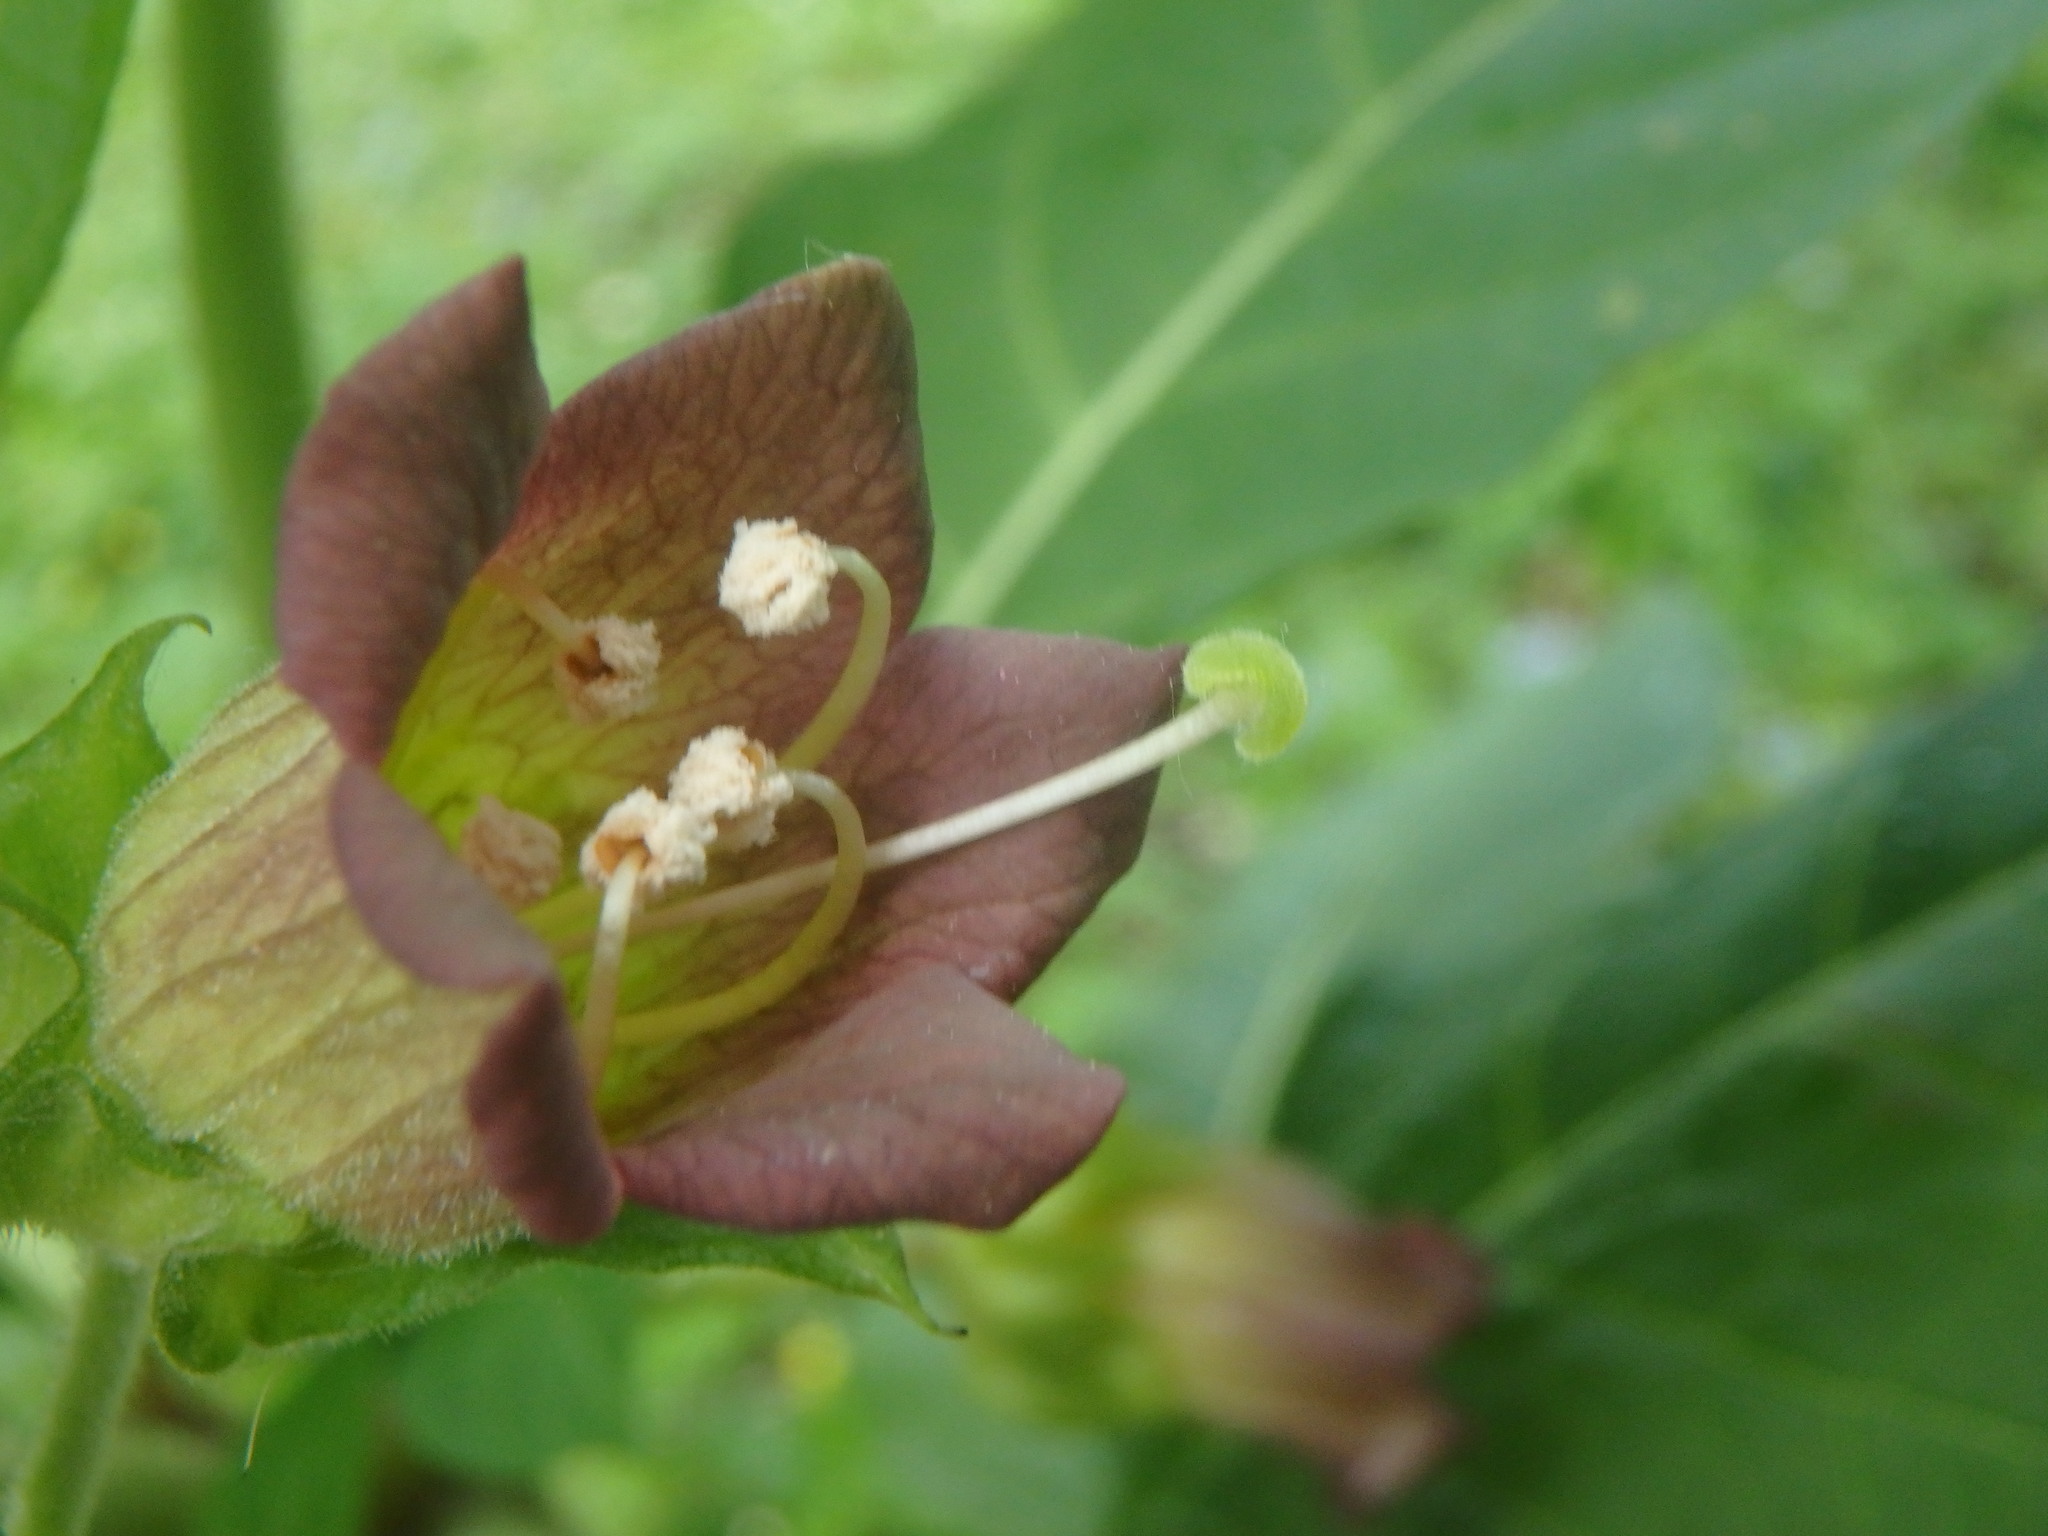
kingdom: Plantae
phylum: Tracheophyta
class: Magnoliopsida
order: Solanales
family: Solanaceae
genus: Atropa
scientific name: Atropa belladonna
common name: Deadly nightshade
